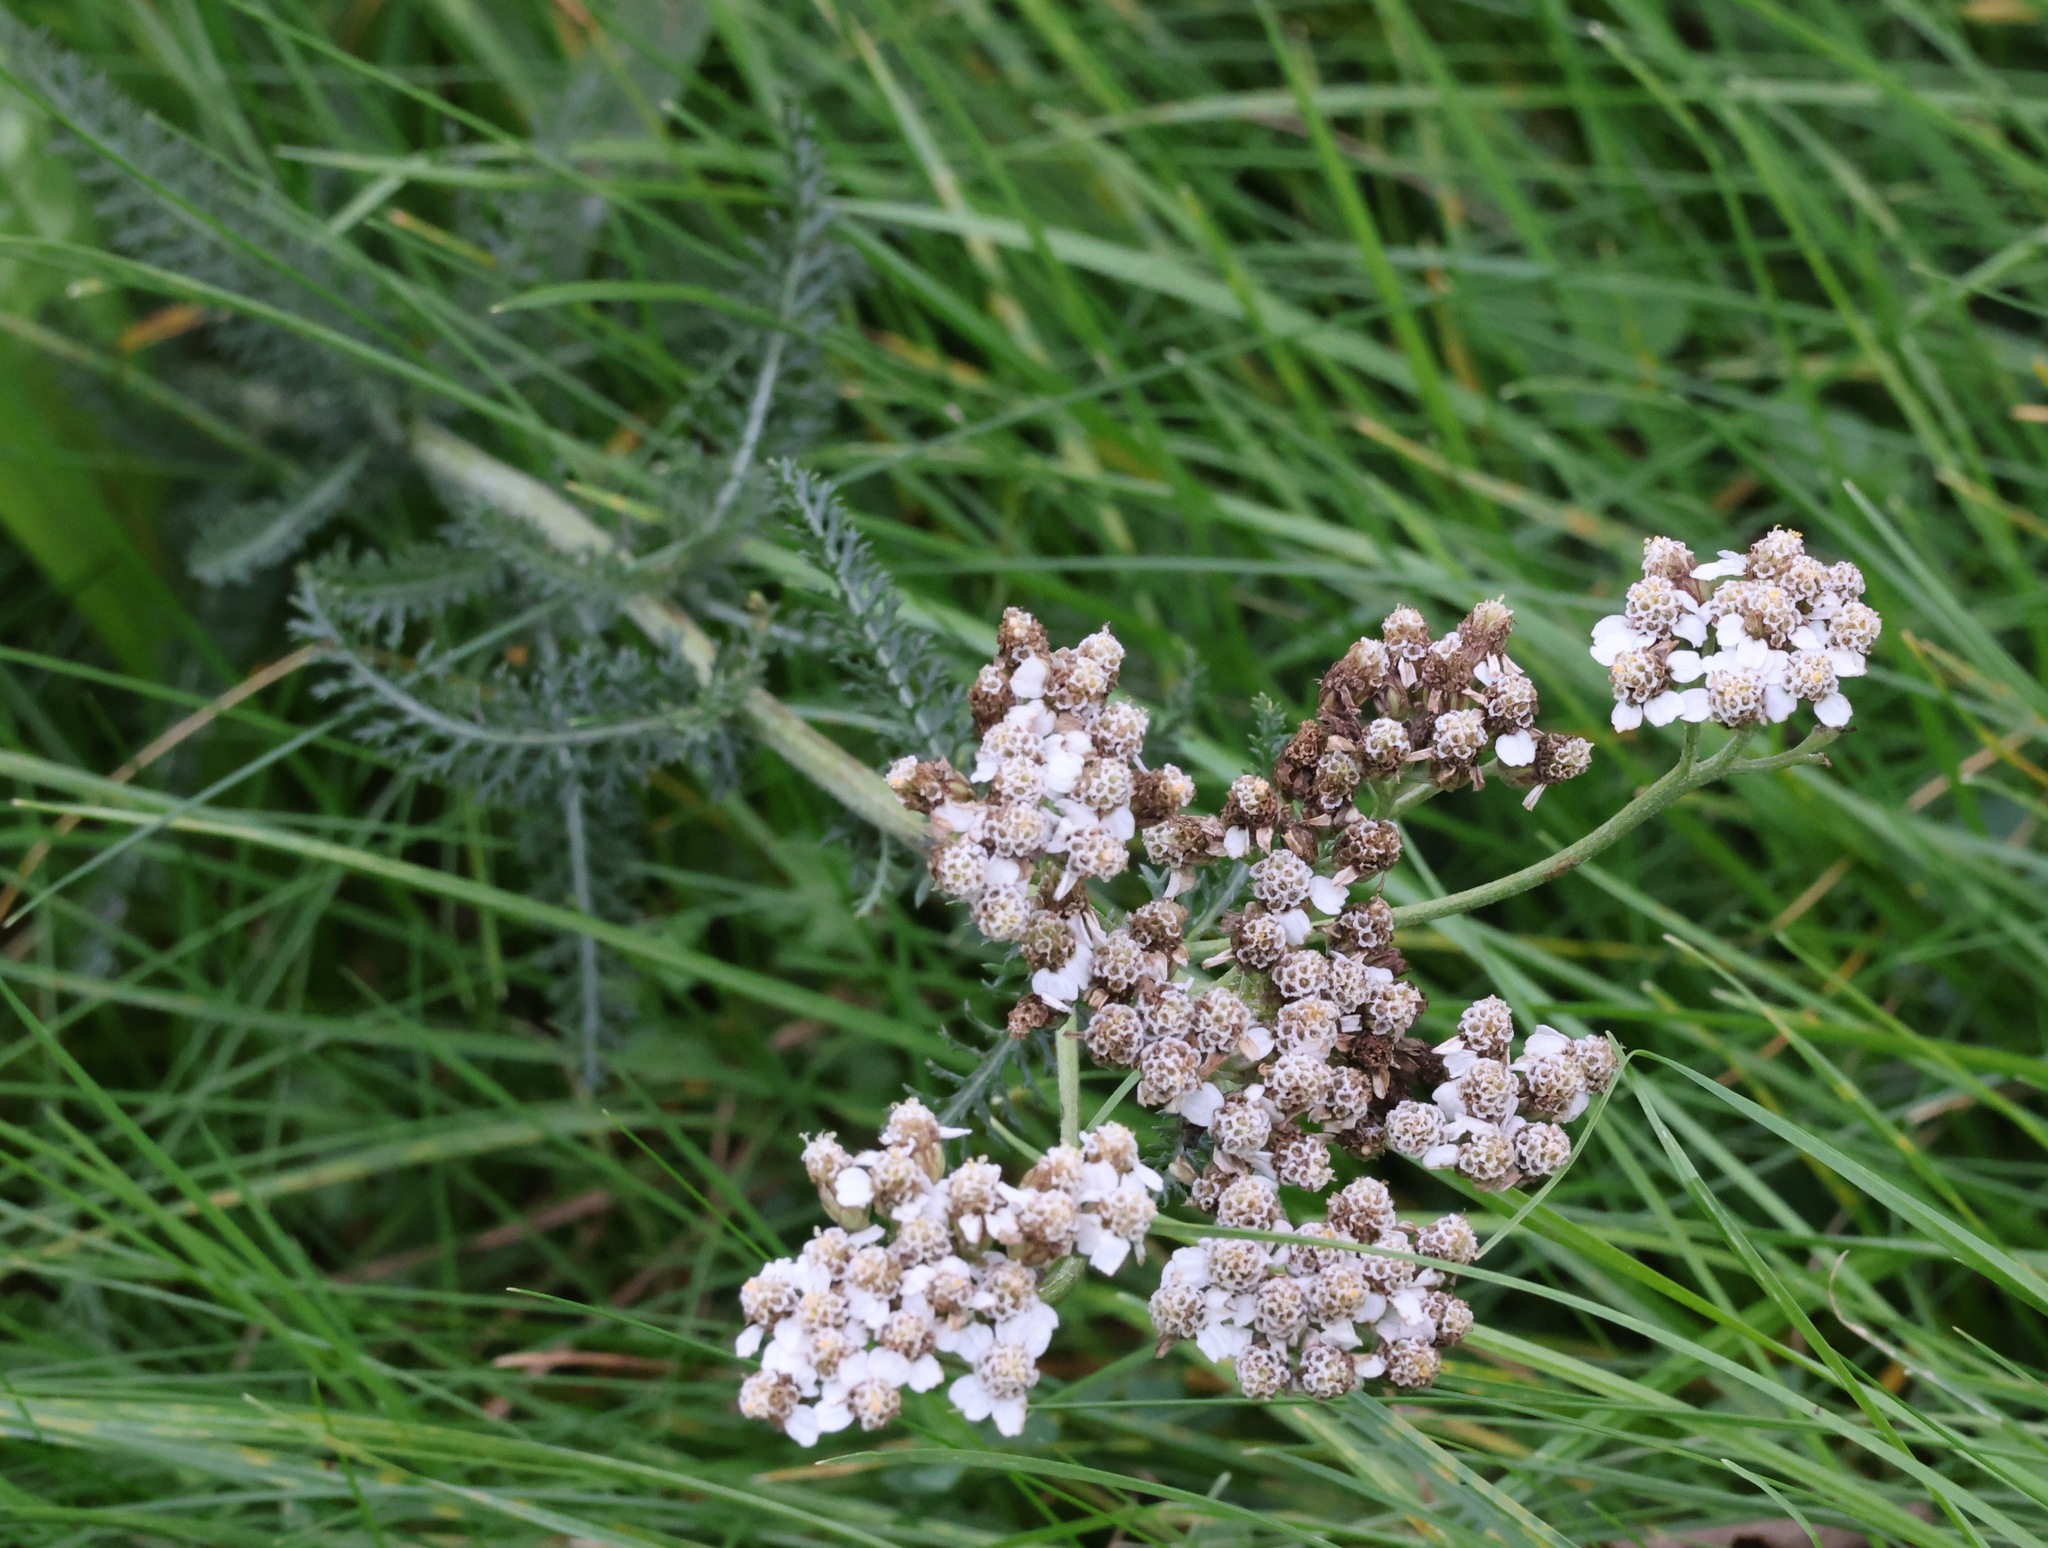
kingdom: Plantae
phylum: Tracheophyta
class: Magnoliopsida
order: Asterales
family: Asteraceae
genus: Achillea
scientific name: Achillea millefolium
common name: Yarrow
